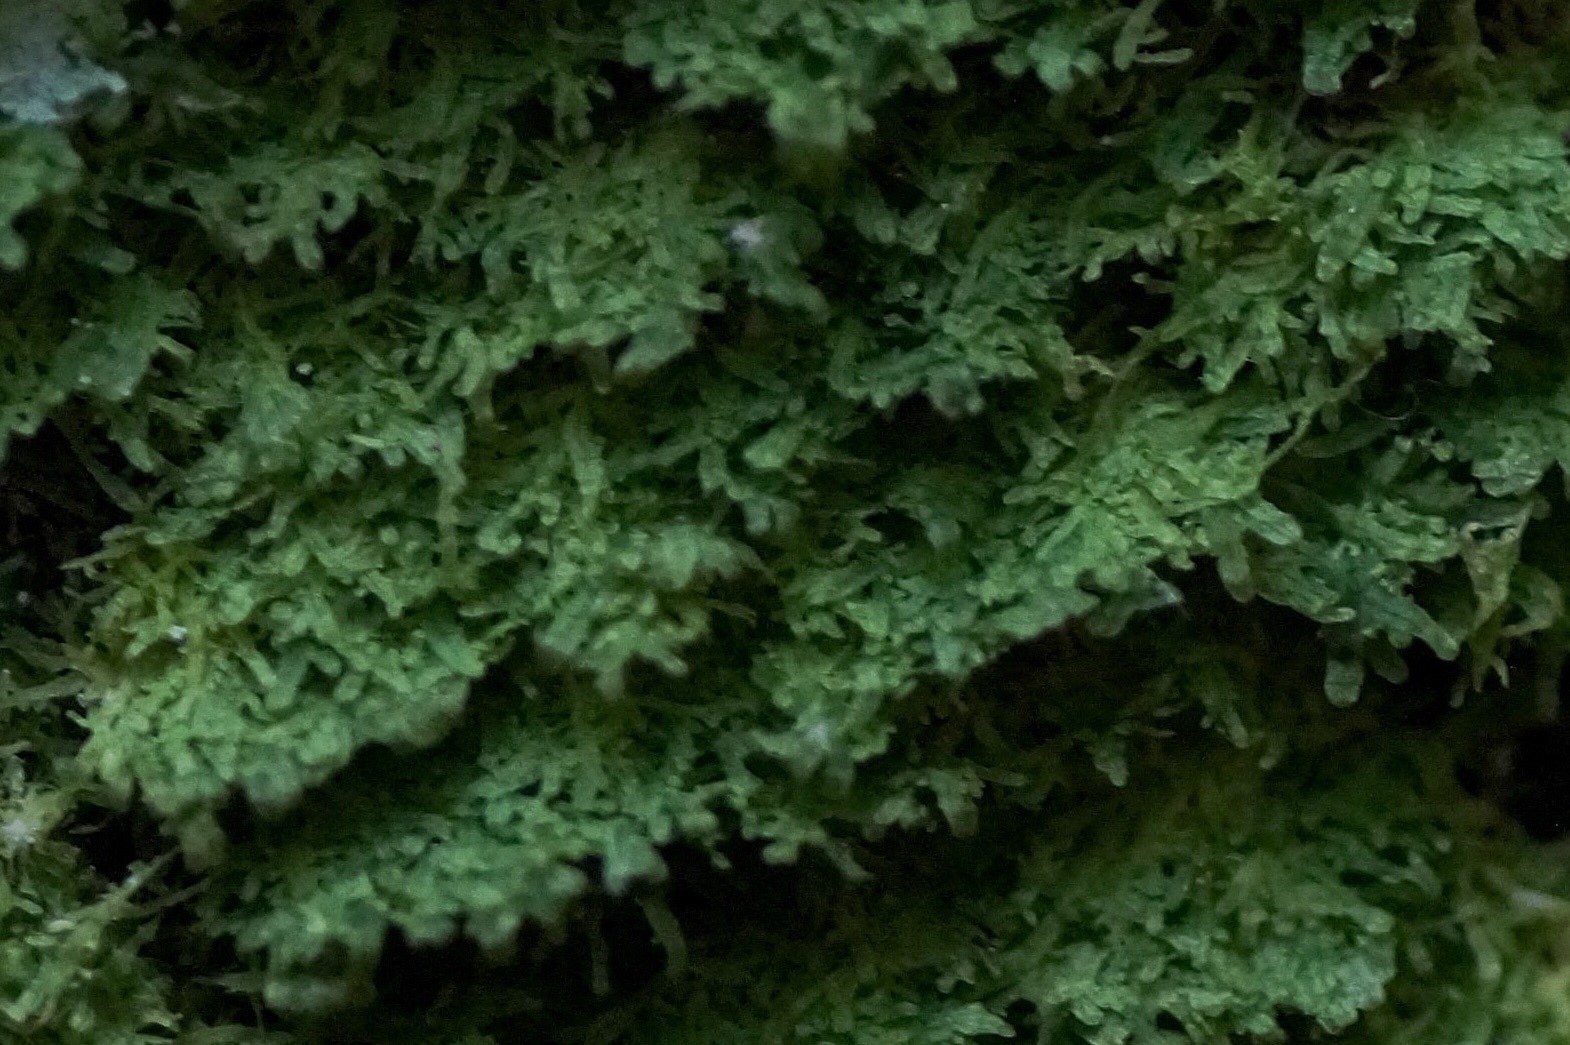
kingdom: Plantae
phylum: Marchantiophyta
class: Jungermanniopsida
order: Metzgeriales
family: Metzgeriaceae
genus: Metzgeria
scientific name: Metzgeria furcata
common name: Forked veilwort
